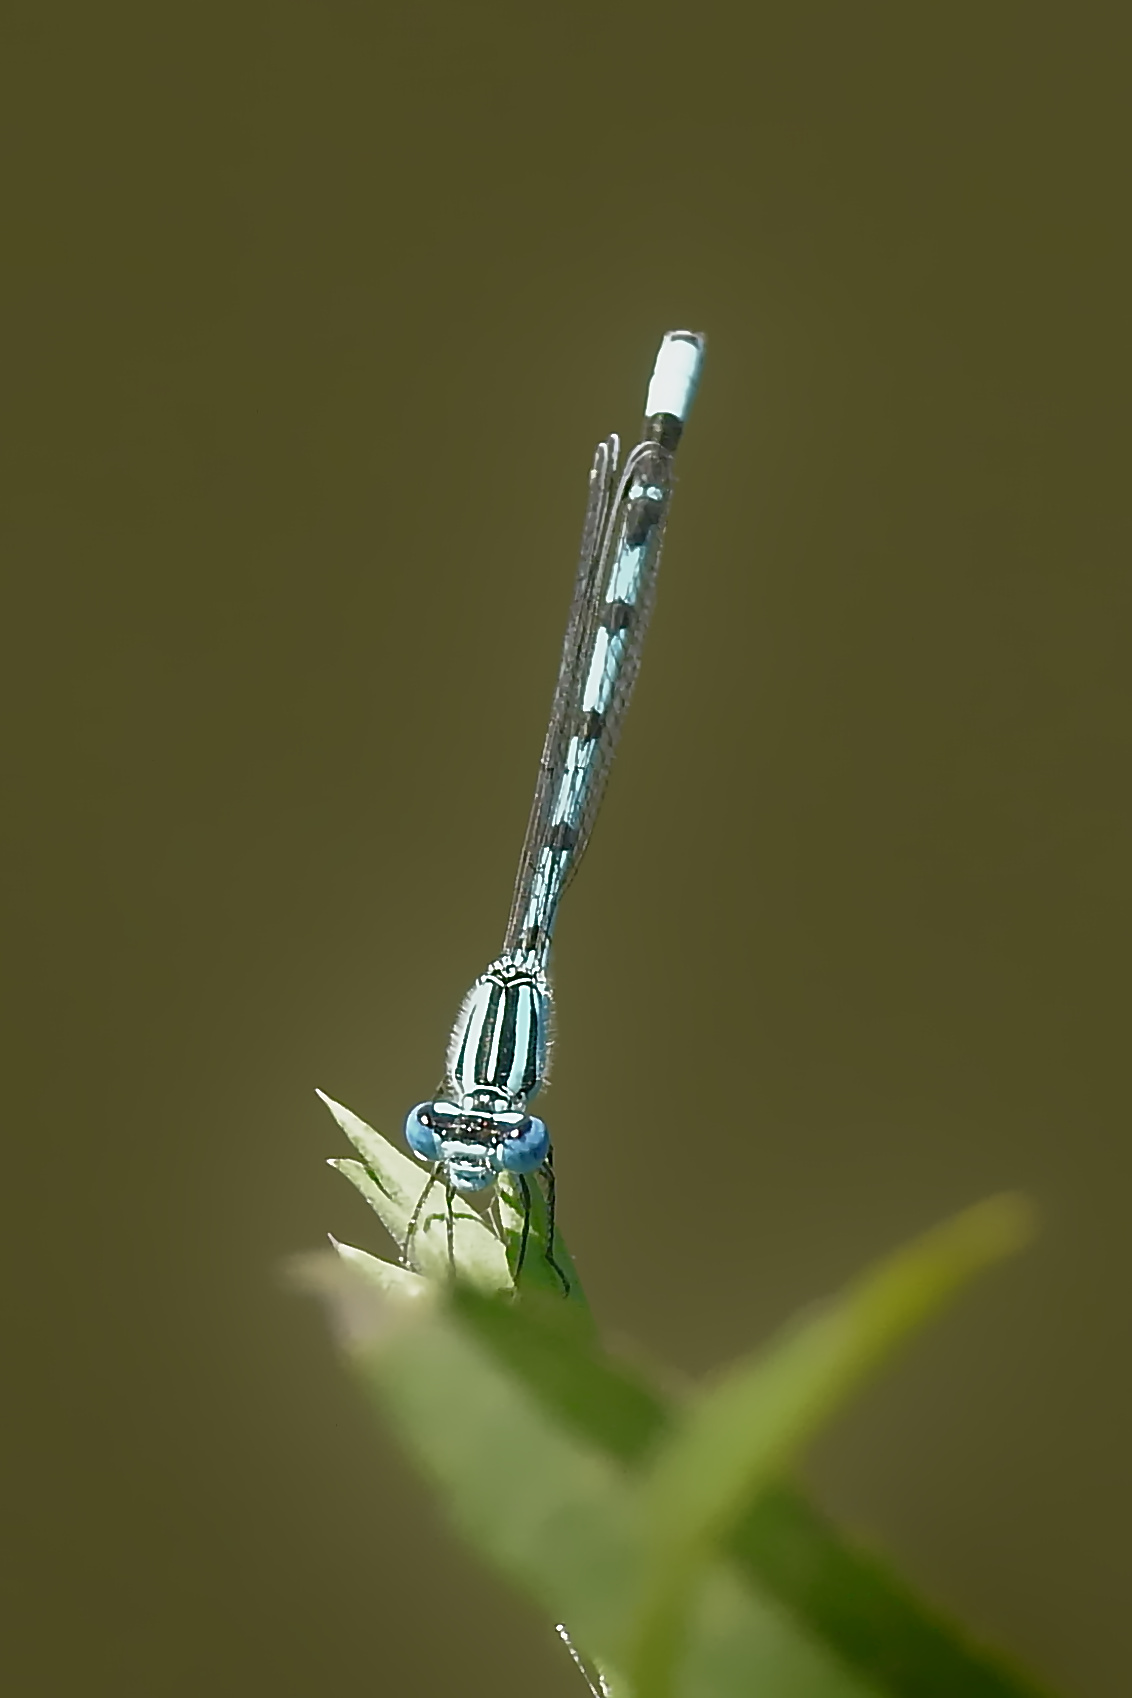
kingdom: Animalia
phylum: Arthropoda
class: Insecta
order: Odonata
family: Coenagrionidae
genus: Enallagma
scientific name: Enallagma durum
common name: Big bluet
